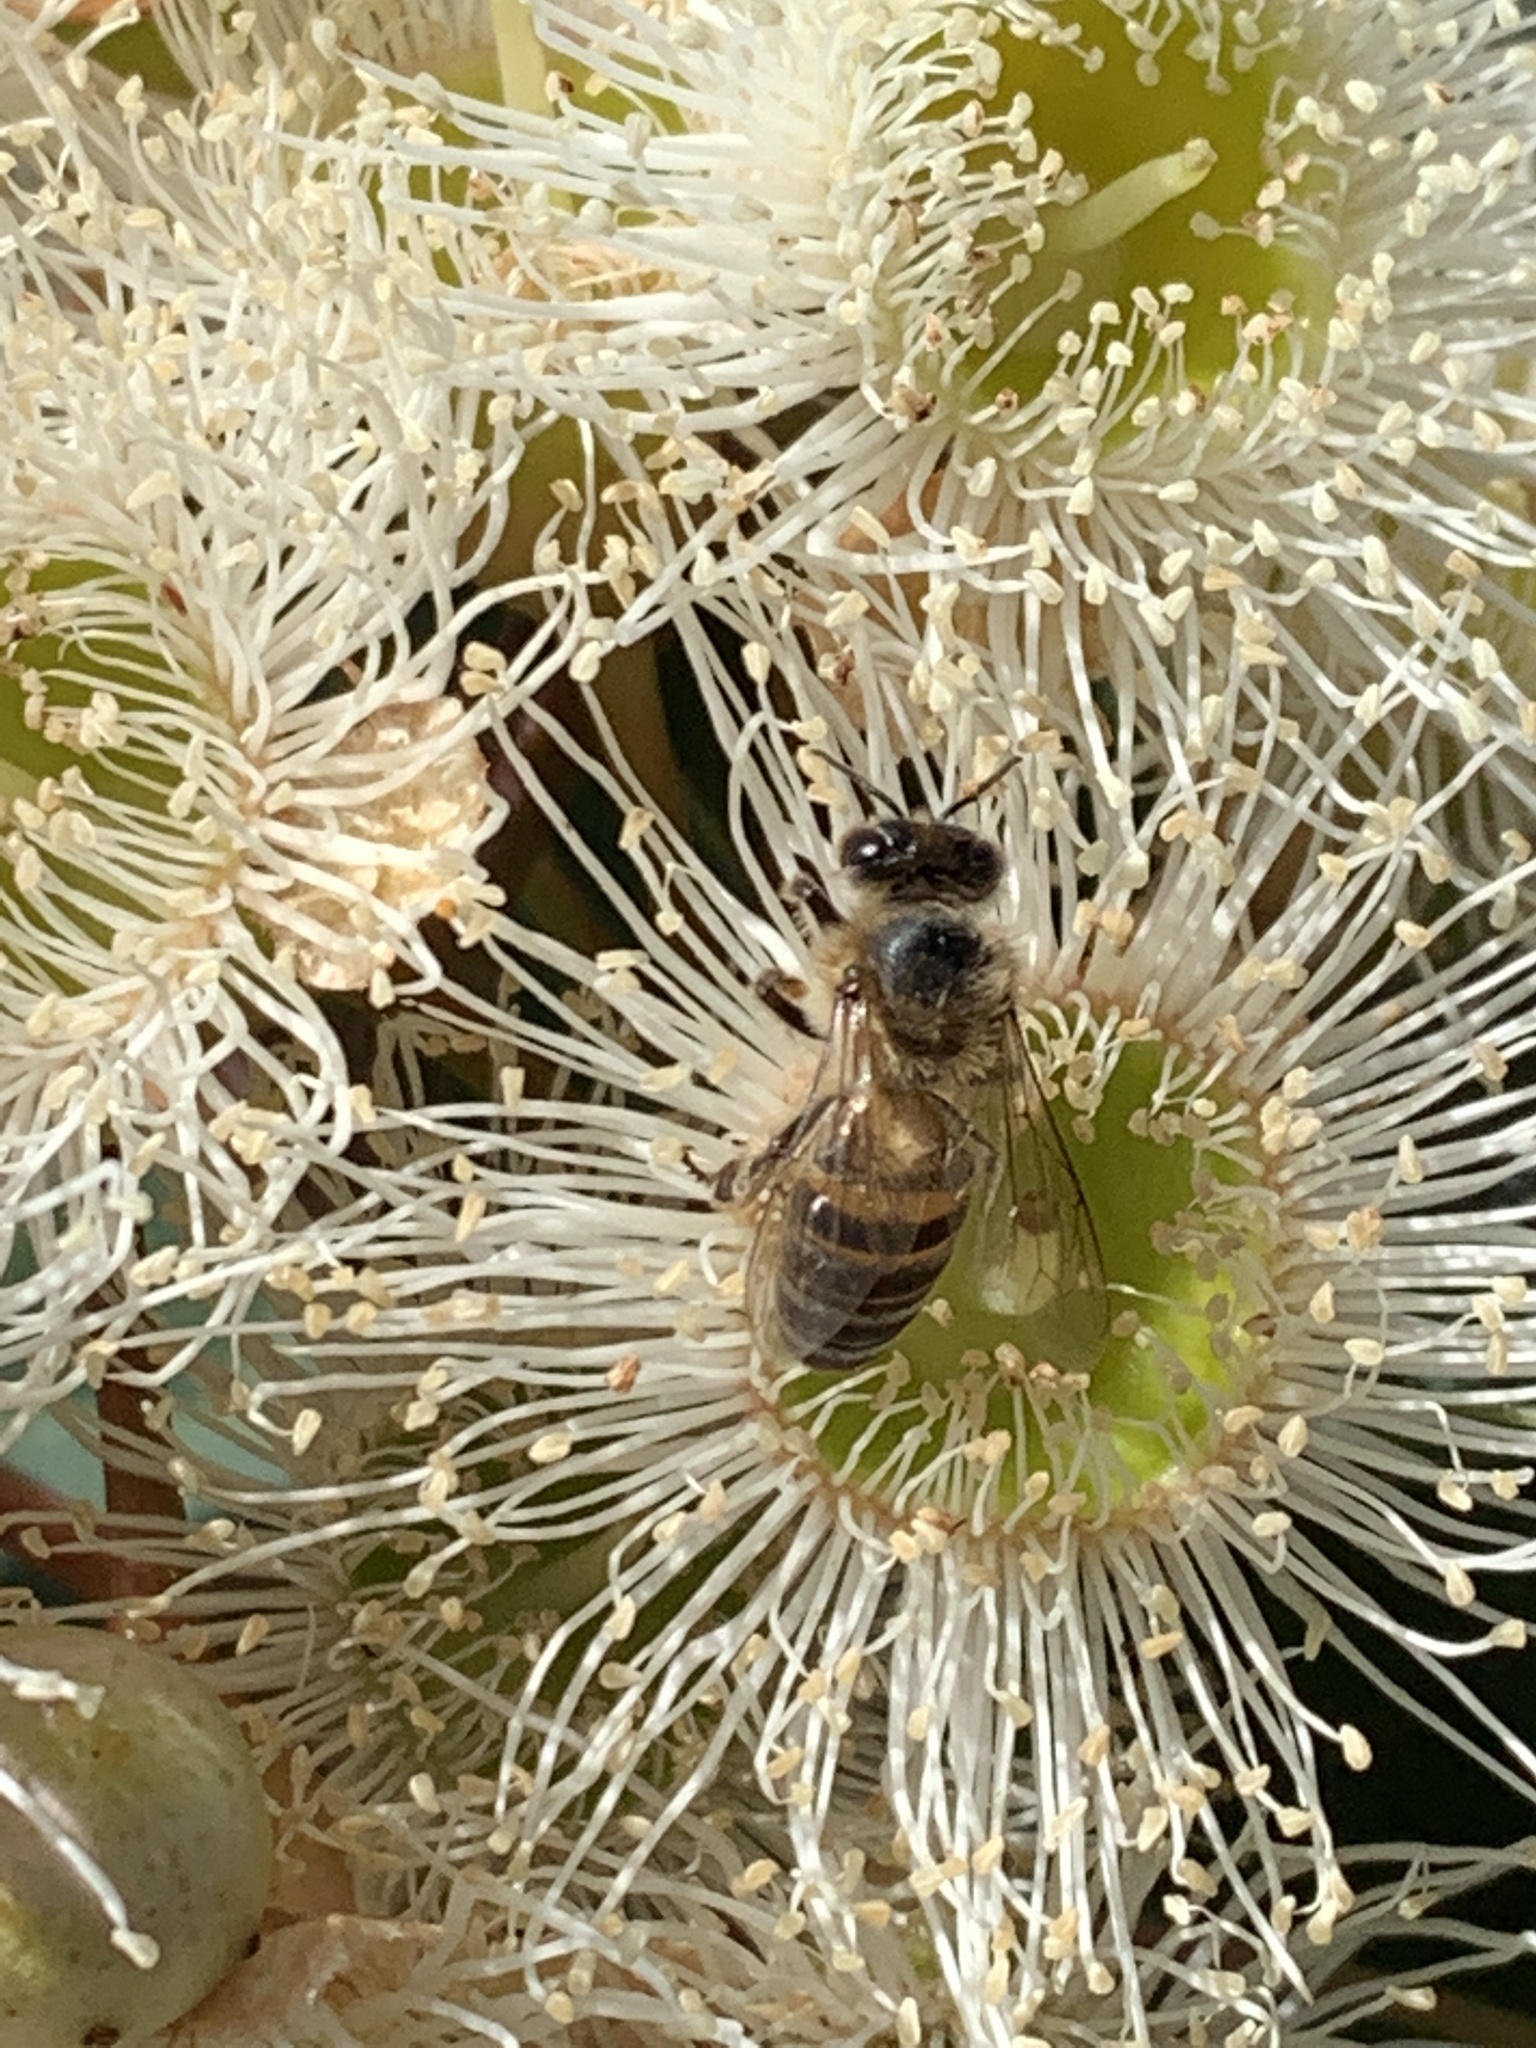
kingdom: Animalia
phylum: Arthropoda
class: Insecta
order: Hymenoptera
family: Apidae
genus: Apis
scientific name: Apis mellifera
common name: Honey bee
